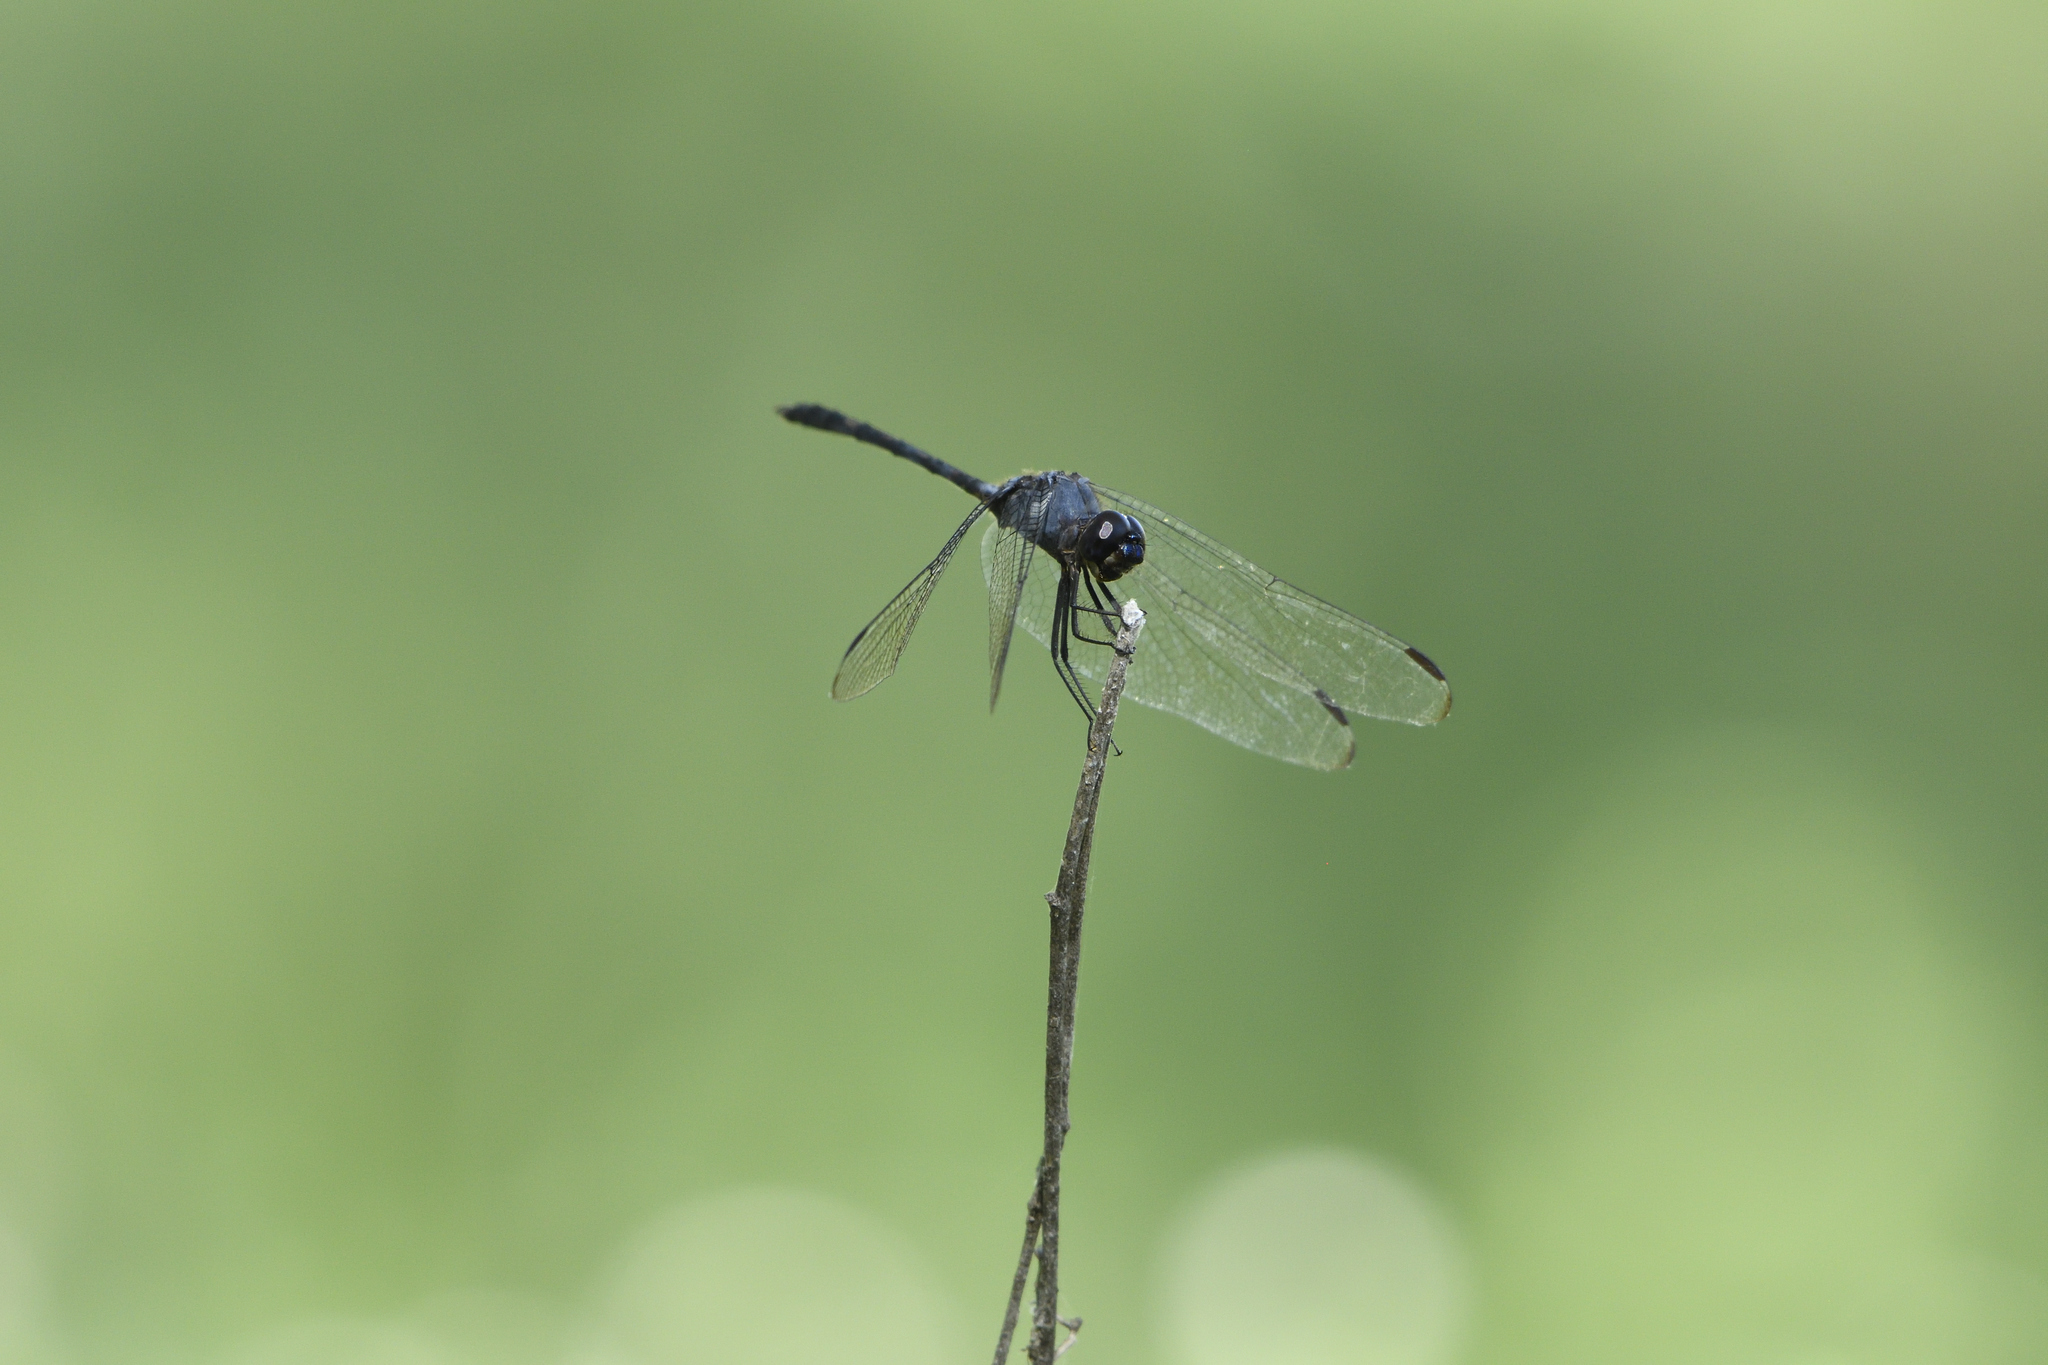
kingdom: Animalia
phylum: Arthropoda
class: Insecta
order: Odonata
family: Libellulidae
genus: Dythemis
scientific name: Dythemis nigrescens
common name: Black setwing
